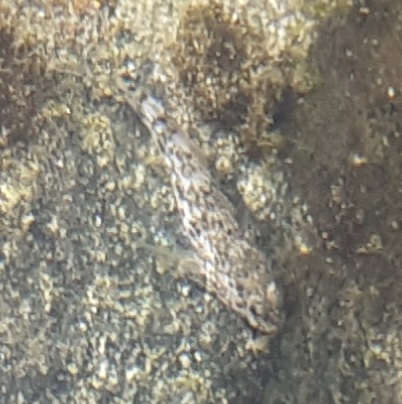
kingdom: Animalia
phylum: Chordata
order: Perciformes
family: Gobiidae
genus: Gobius
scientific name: Gobius cobitis
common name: Giant goby
